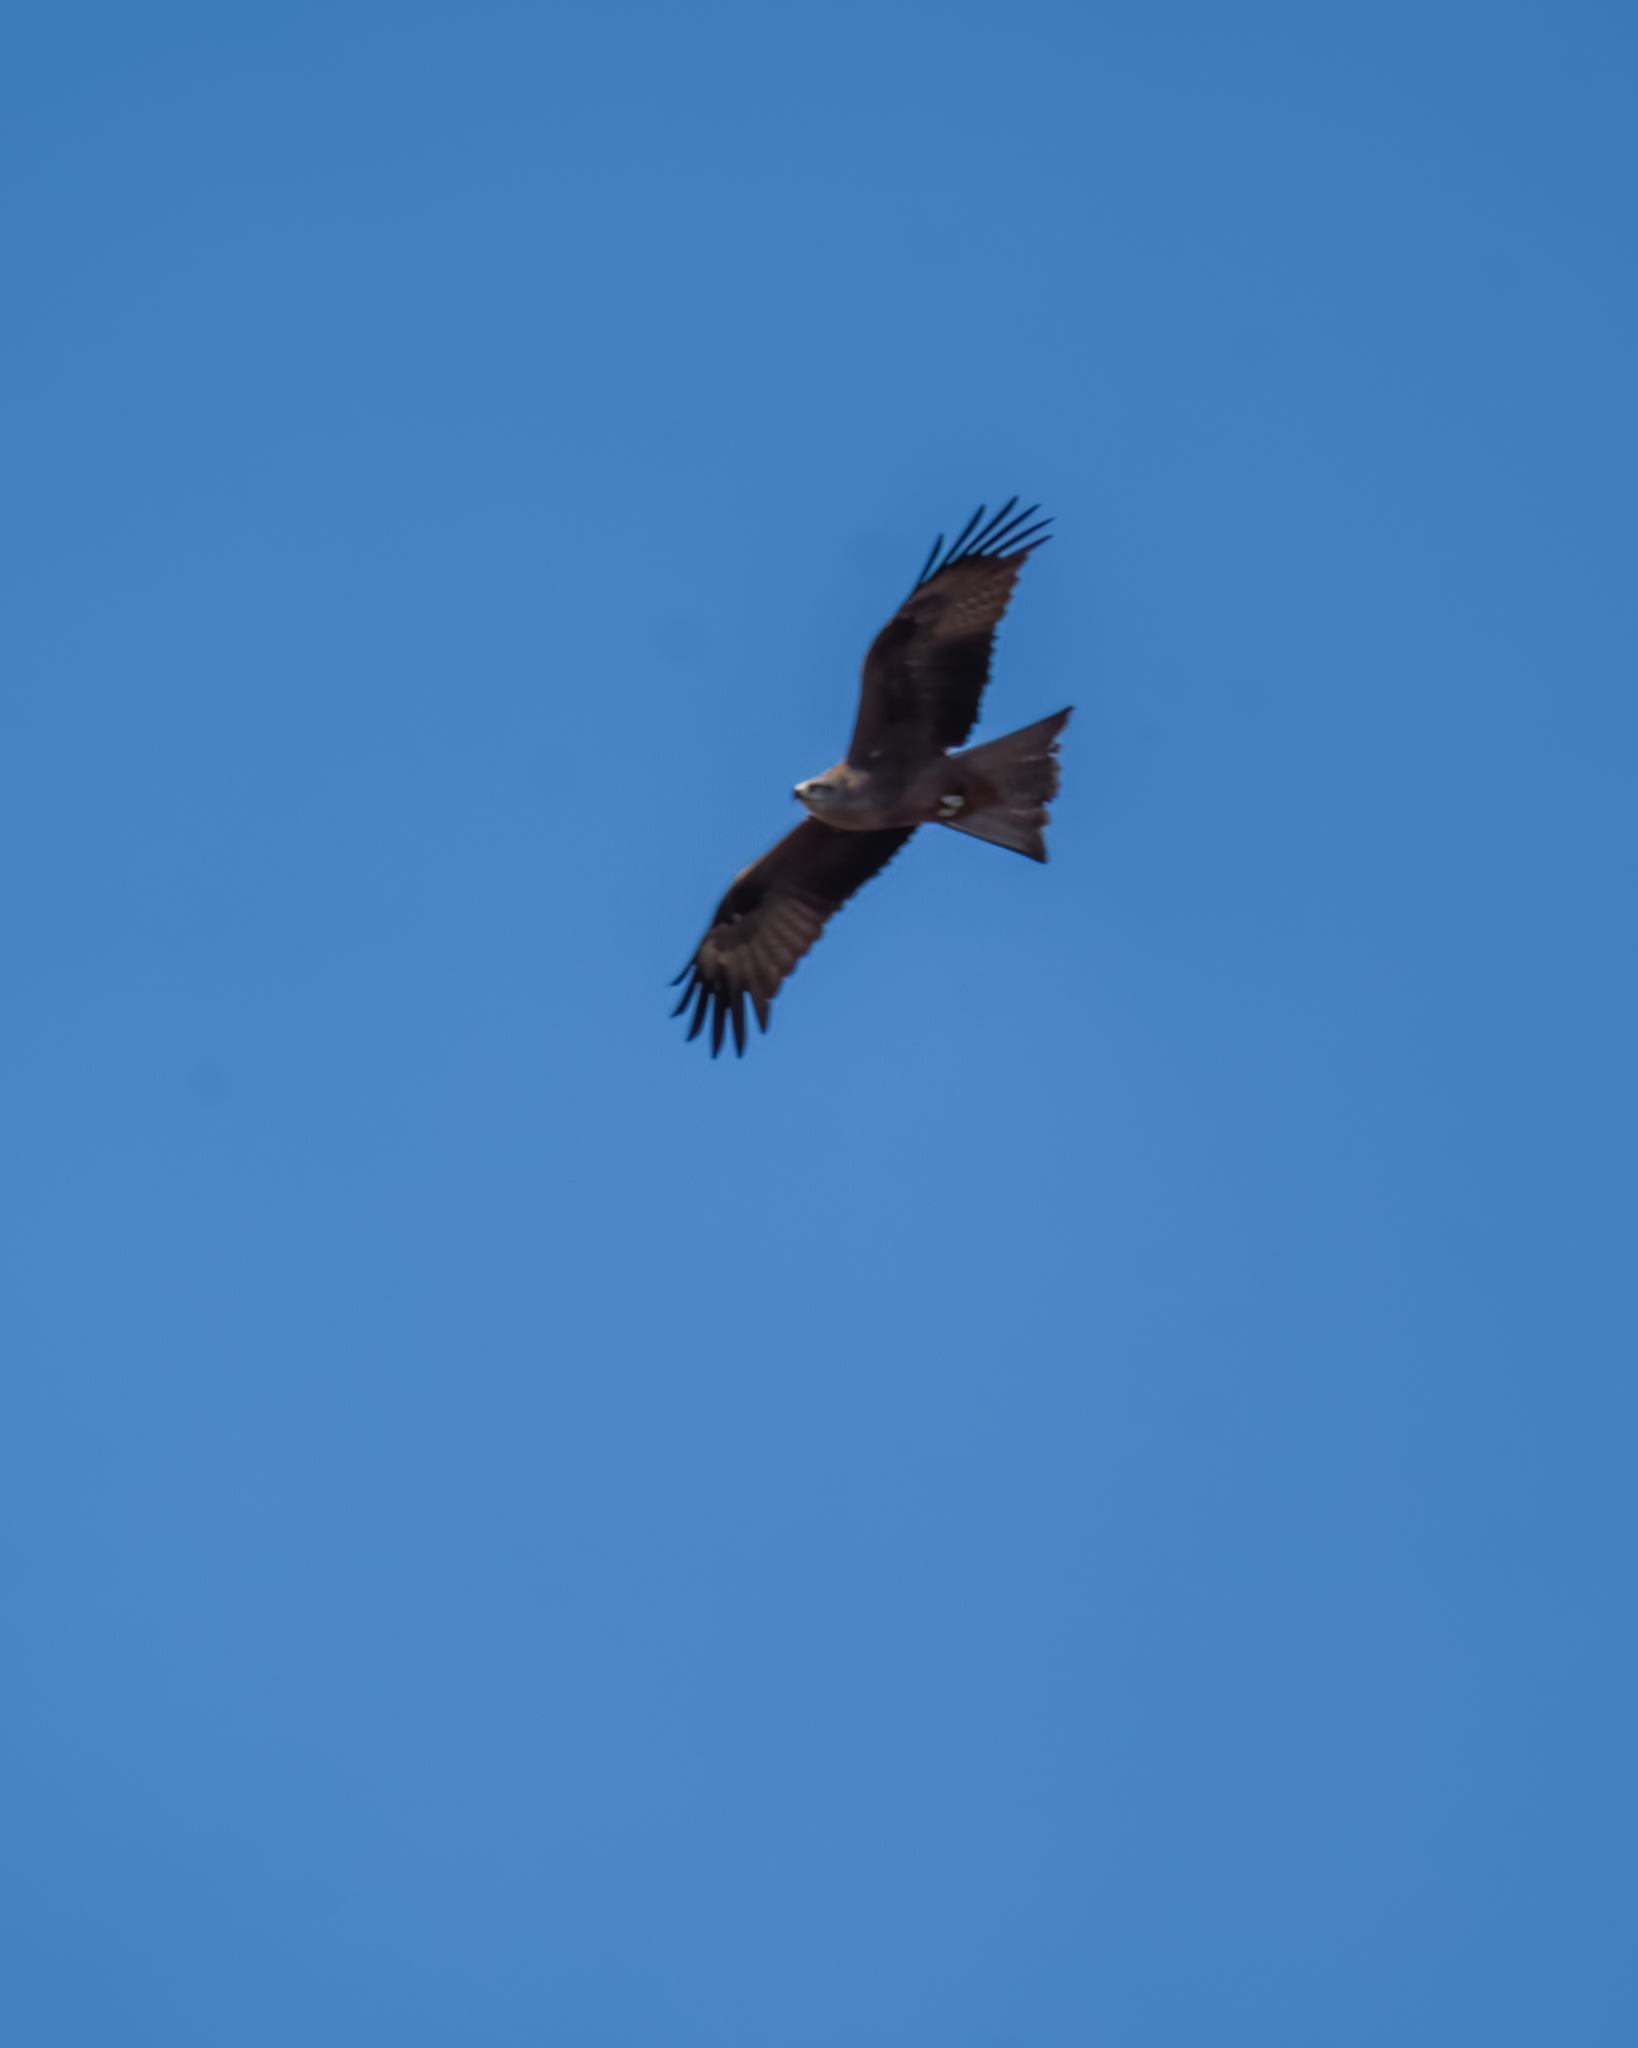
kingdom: Animalia
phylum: Chordata
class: Aves
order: Accipitriformes
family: Accipitridae
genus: Milvus
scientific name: Milvus migrans
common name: Black kite
